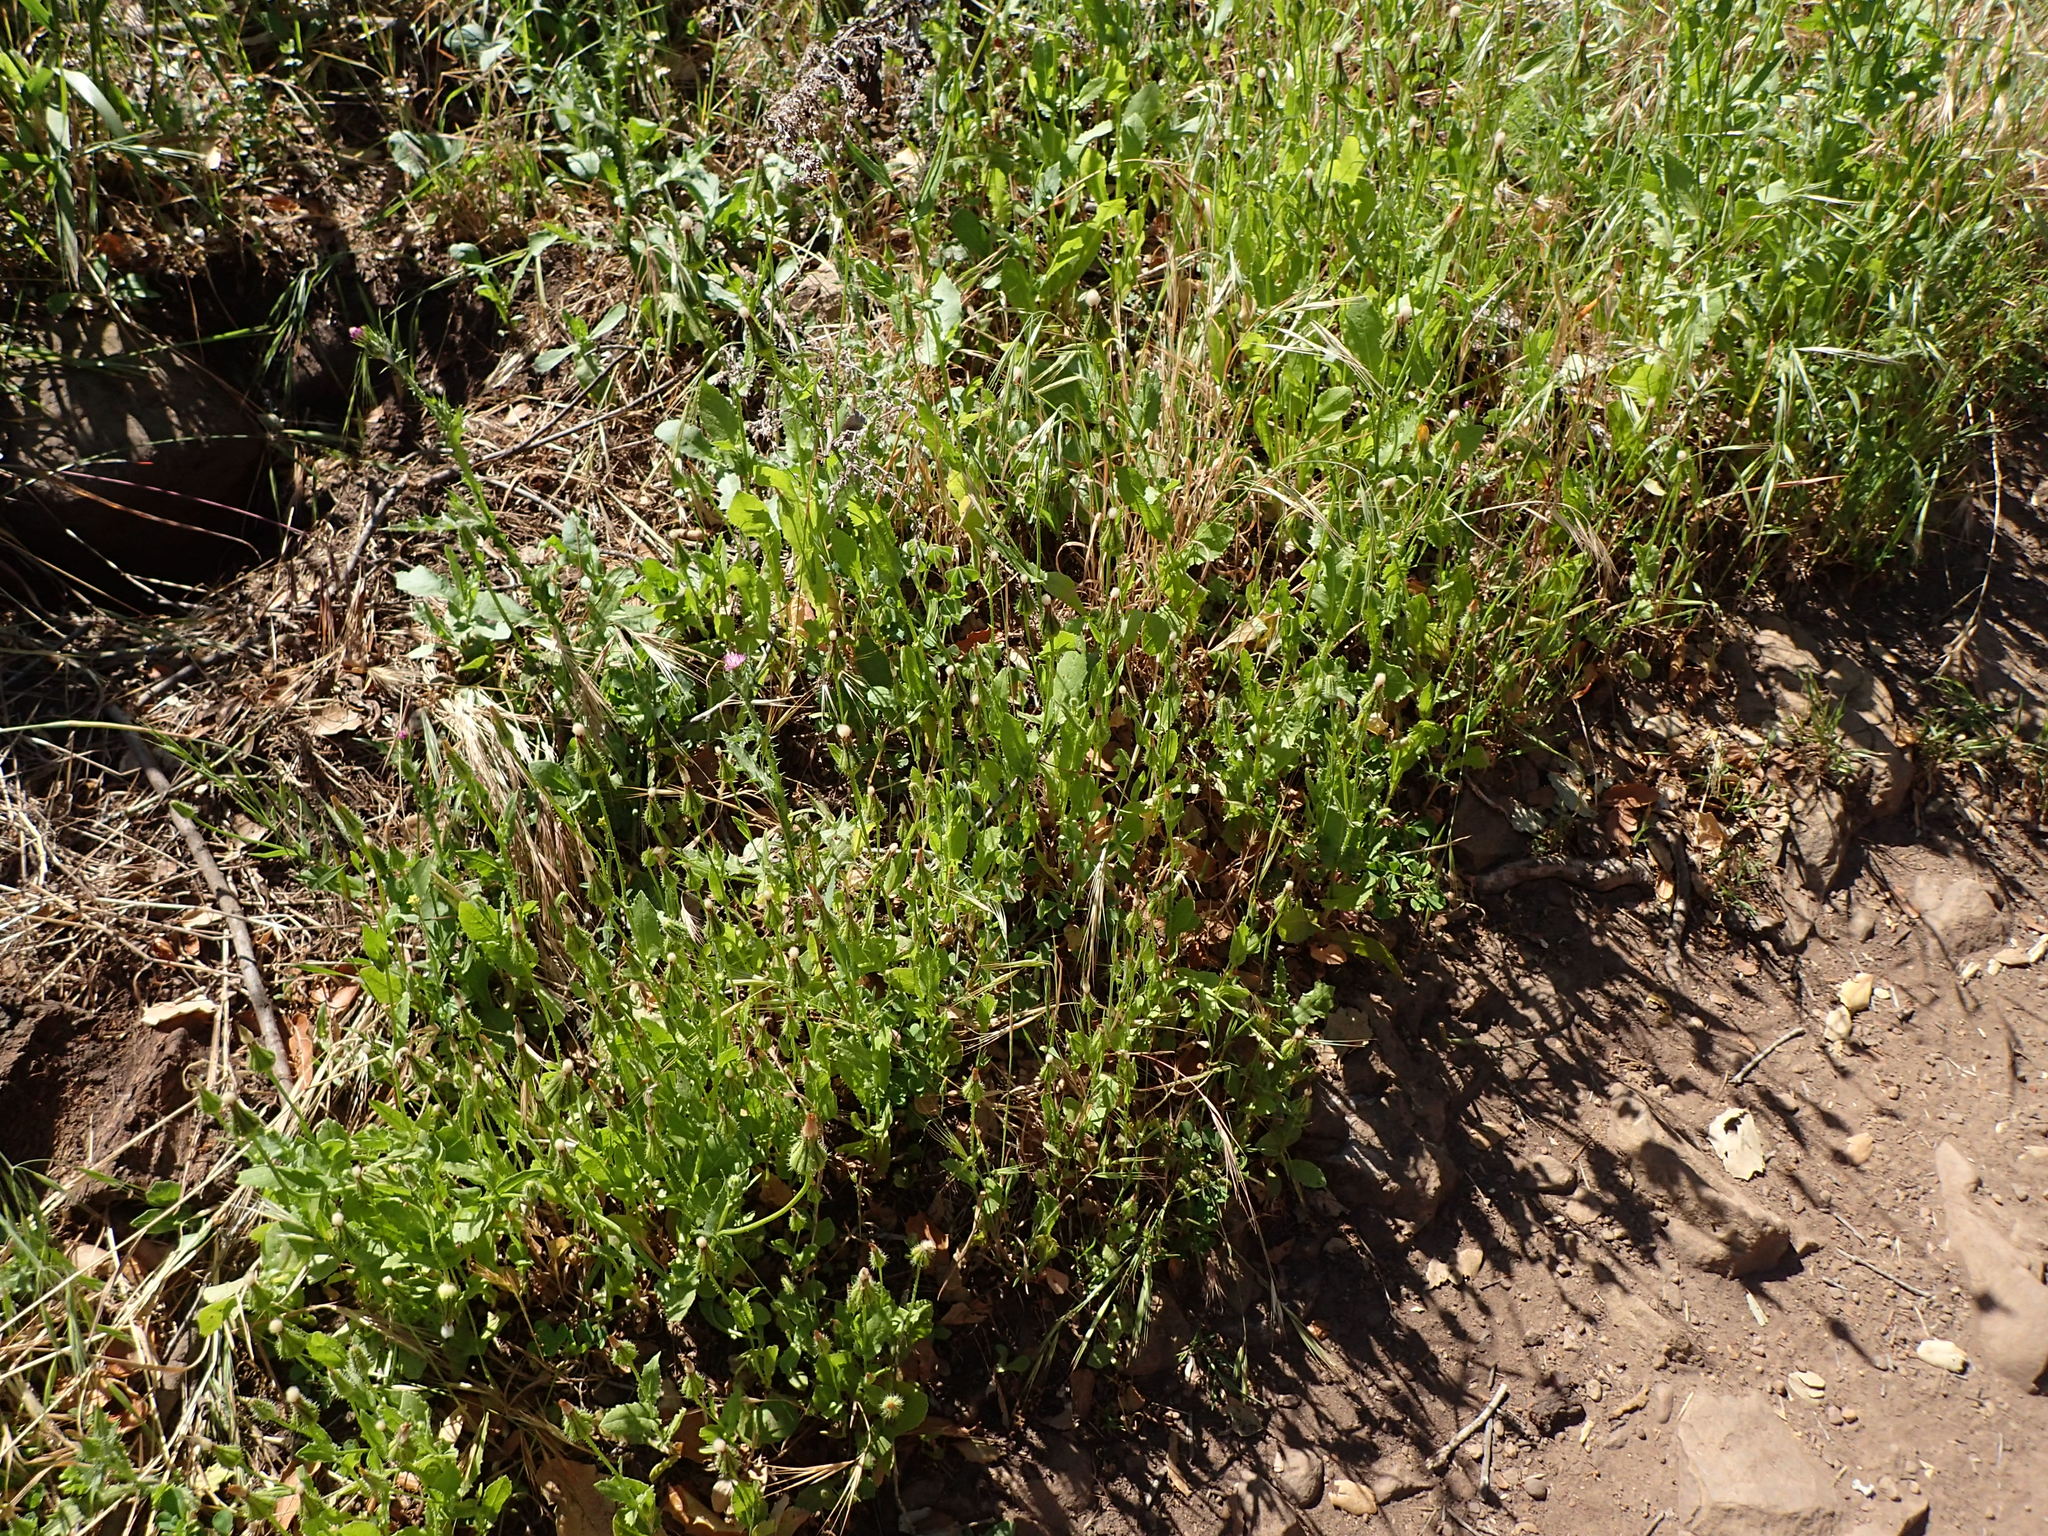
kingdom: Plantae
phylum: Tracheophyta
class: Magnoliopsida
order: Asterales
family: Asteraceae
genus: Urospermum
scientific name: Urospermum picroides
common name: False hawkbit
